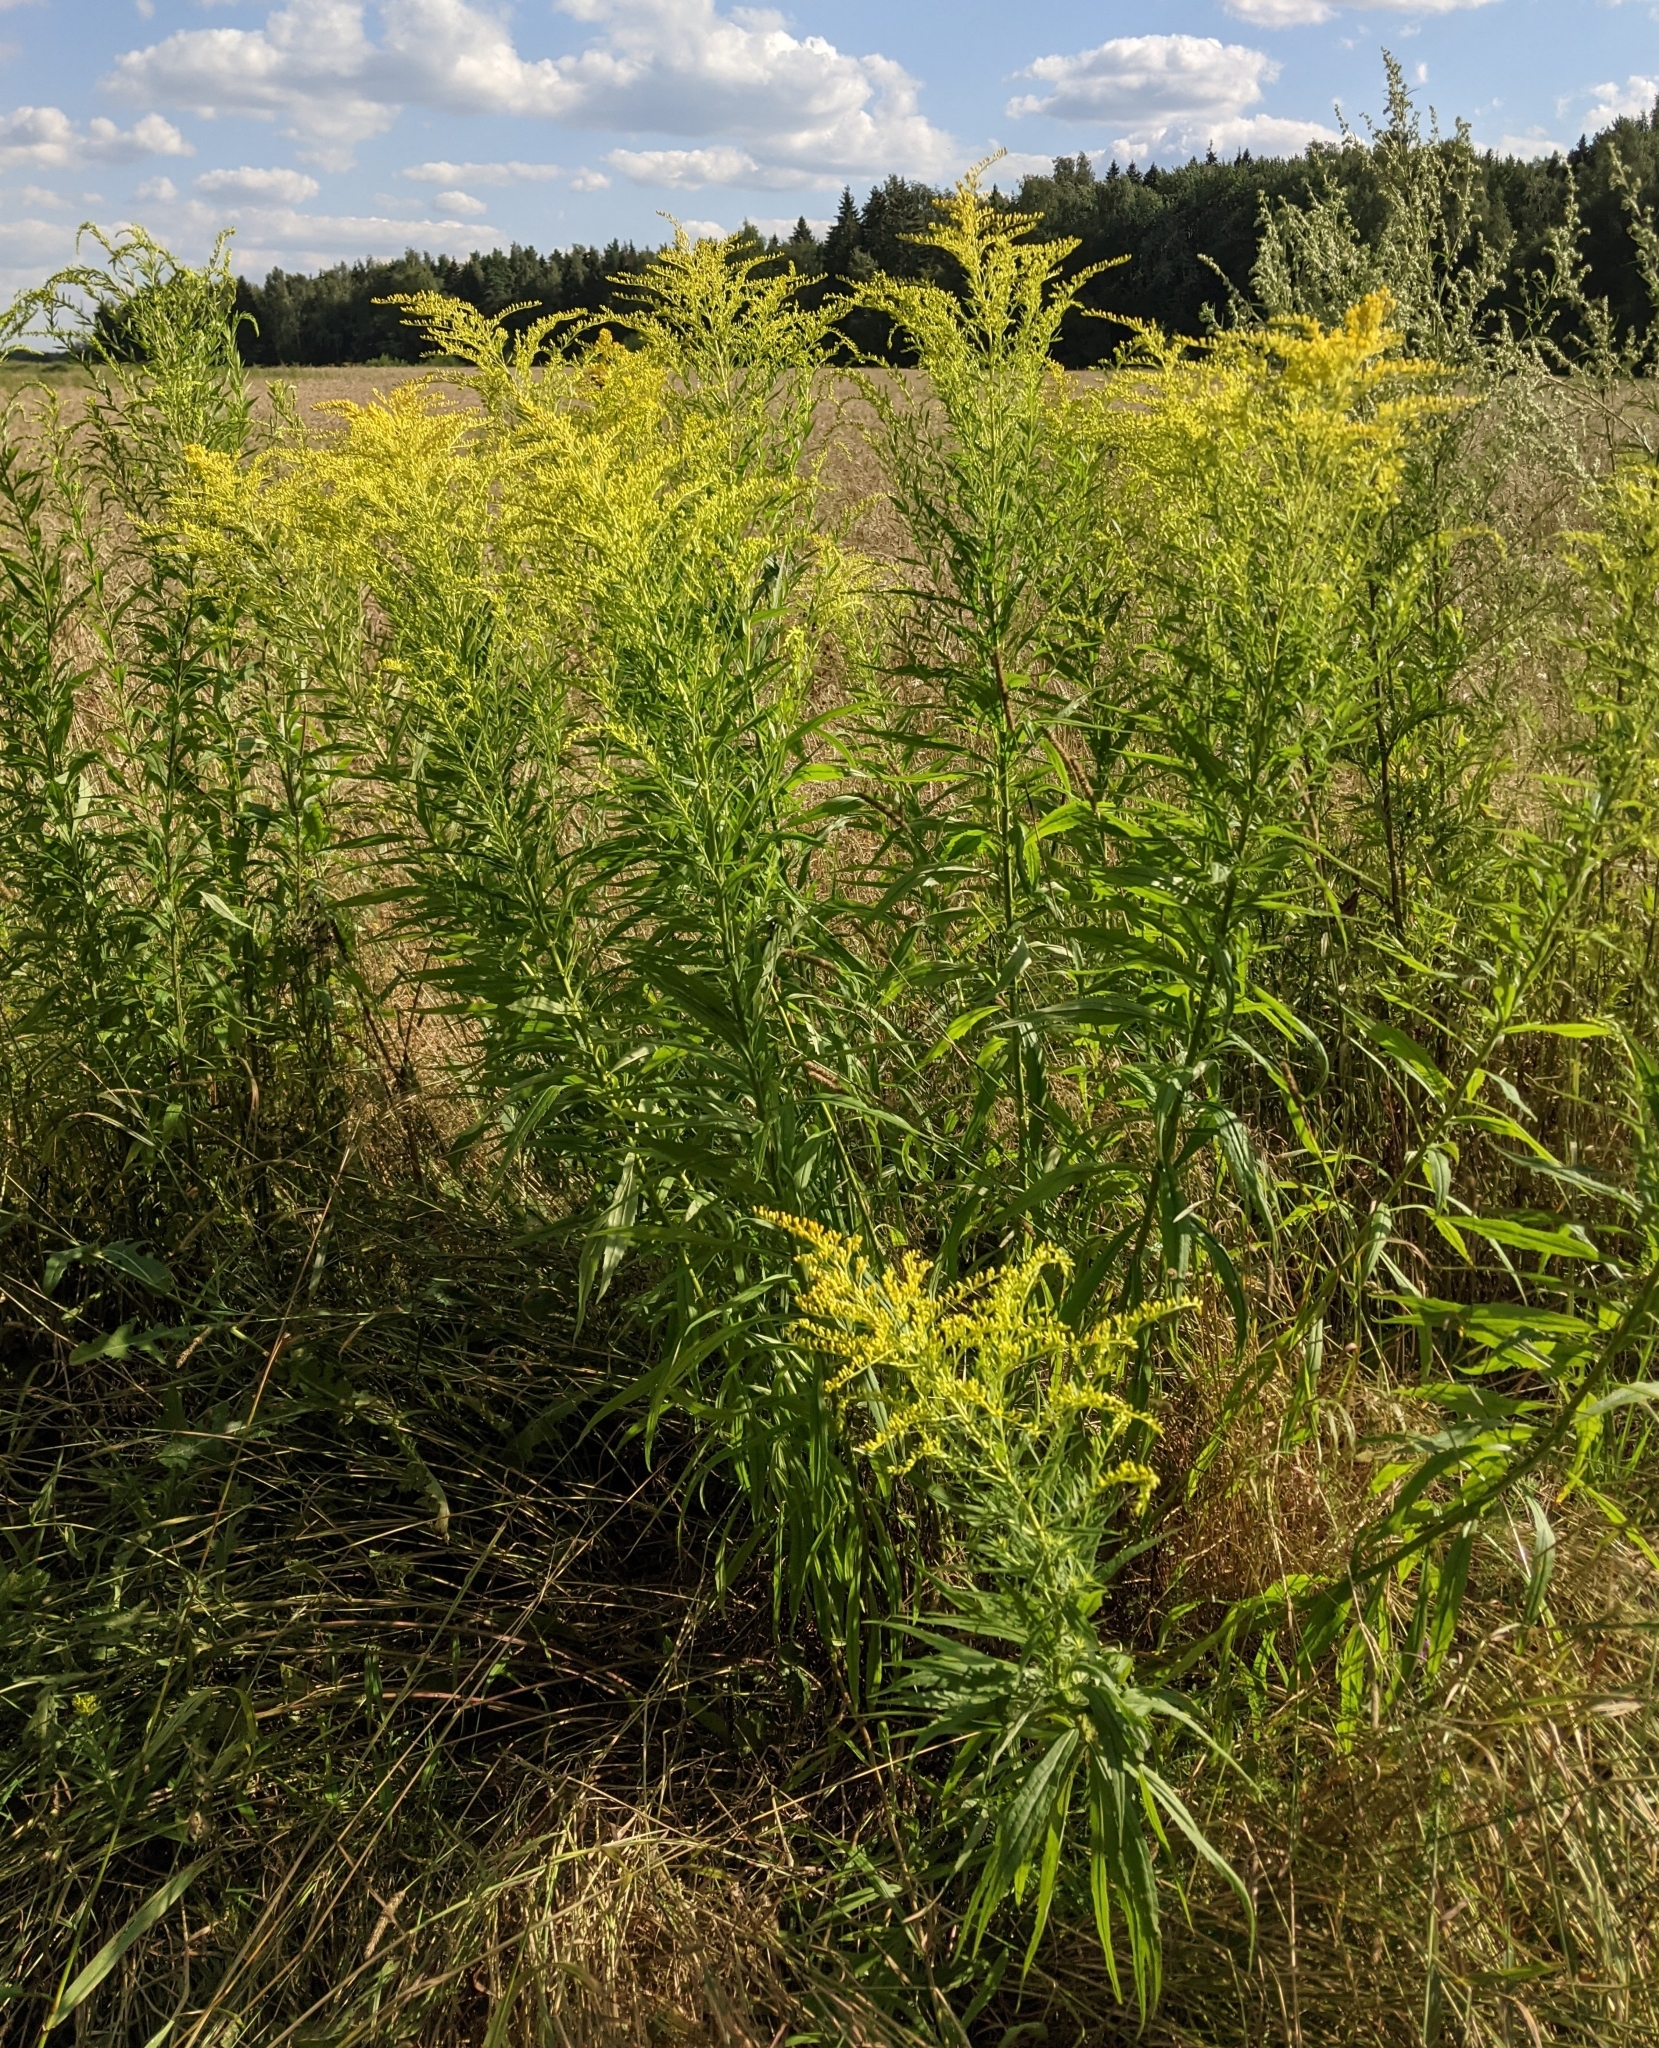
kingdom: Plantae
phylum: Tracheophyta
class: Magnoliopsida
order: Asterales
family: Asteraceae
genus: Solidago
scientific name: Solidago canadensis
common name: Canada goldenrod
